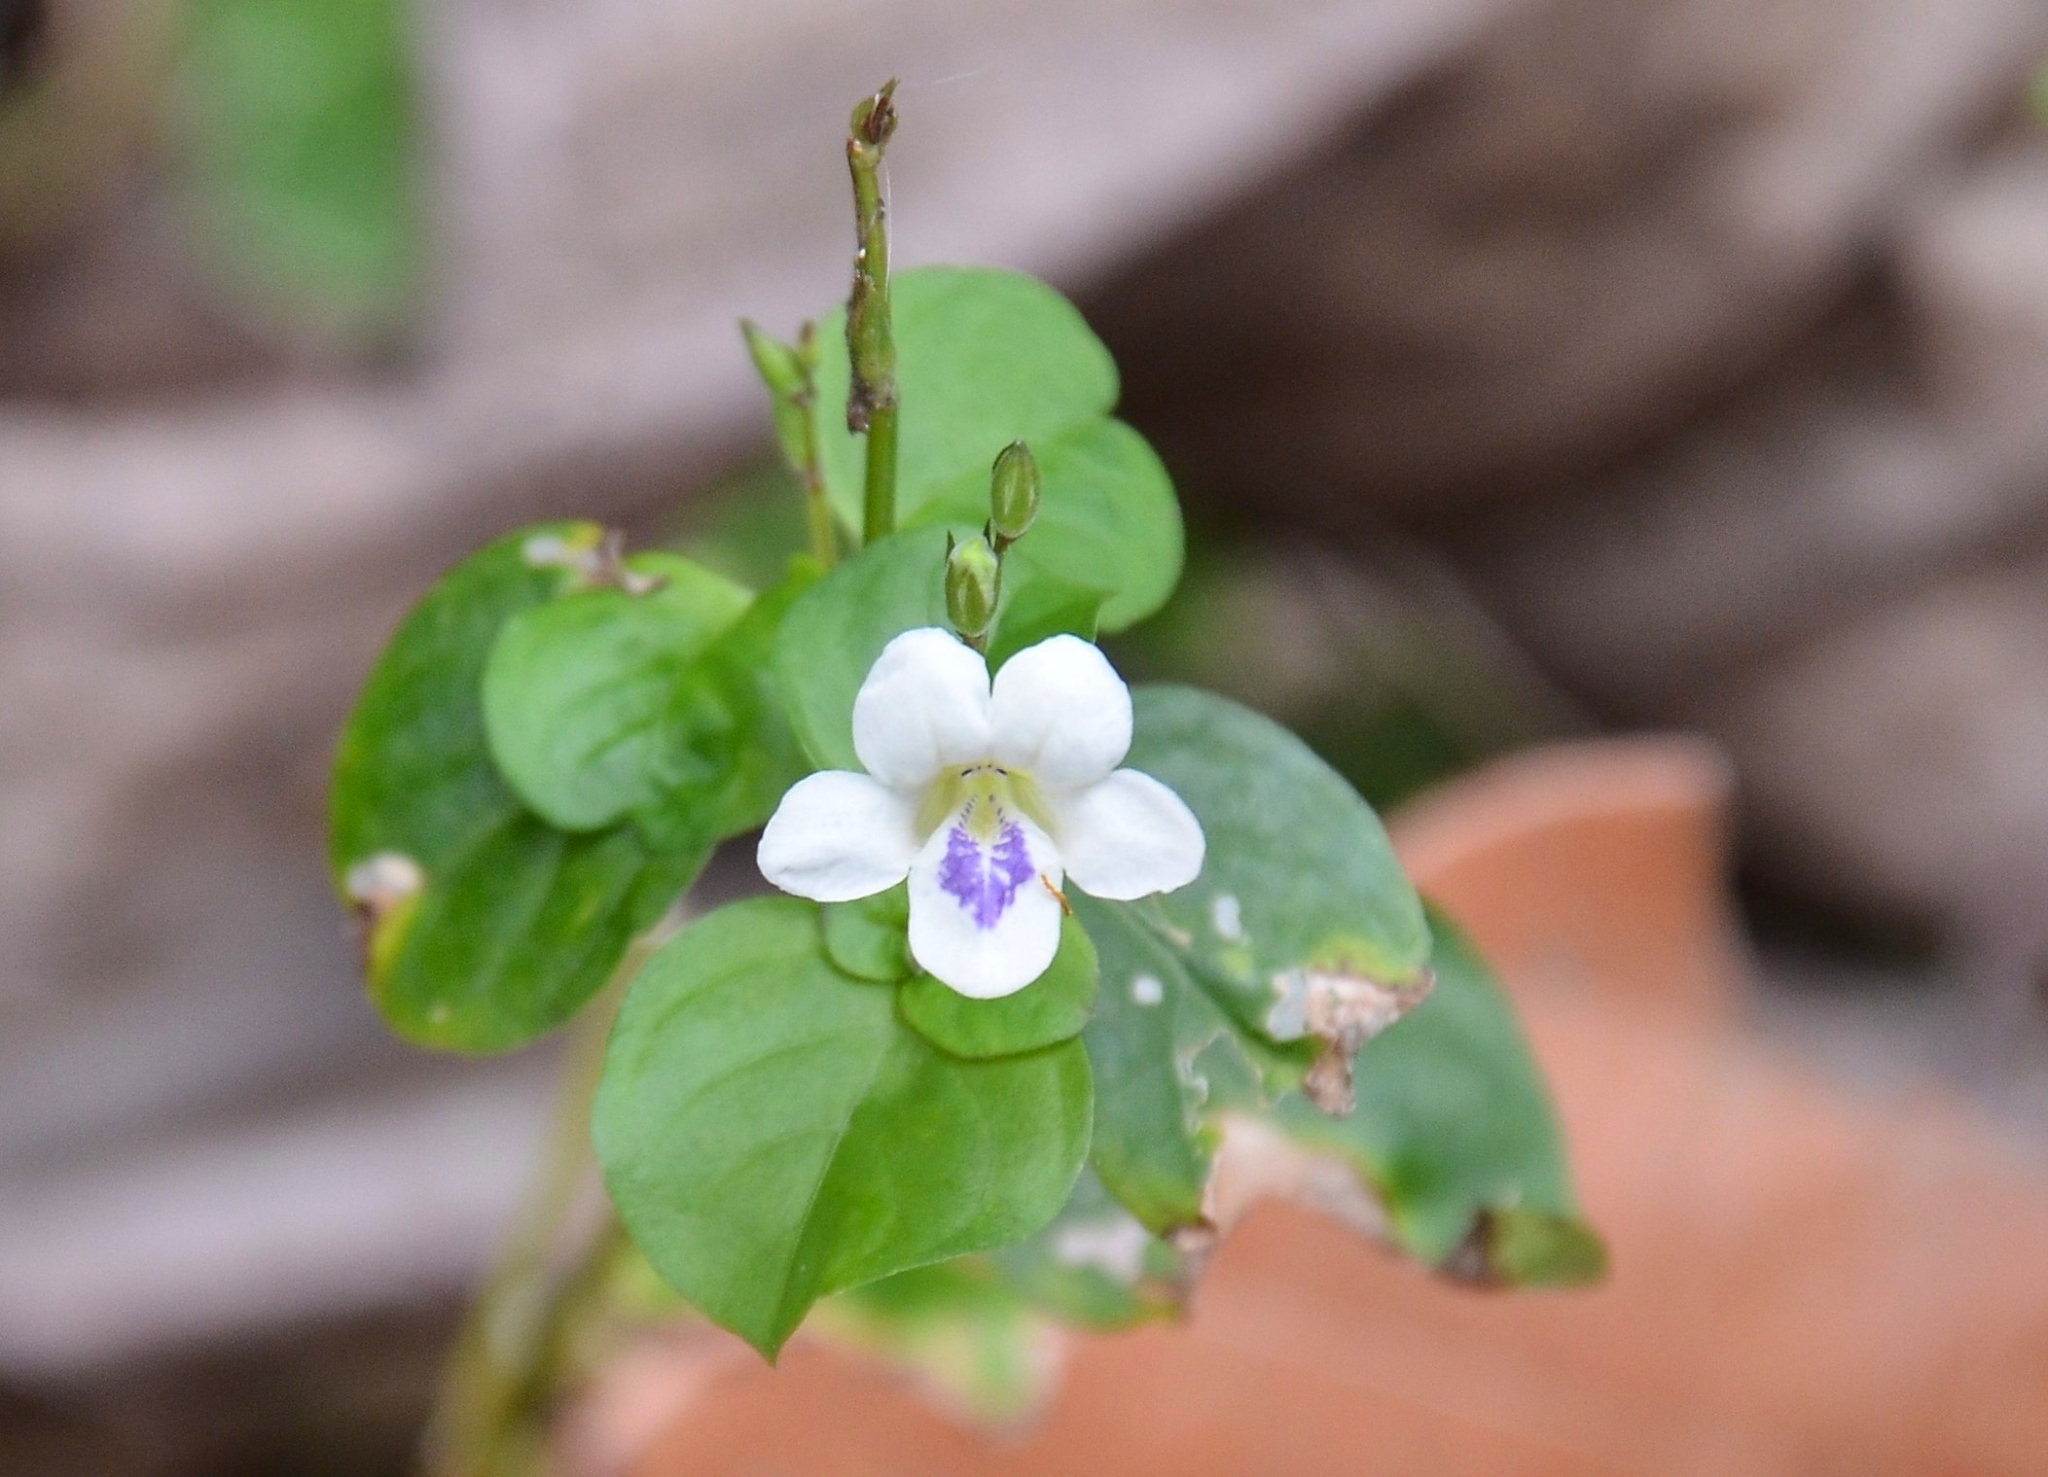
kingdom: Plantae
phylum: Tracheophyta
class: Magnoliopsida
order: Lamiales
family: Acanthaceae
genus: Asystasia
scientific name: Asystasia intrusa
